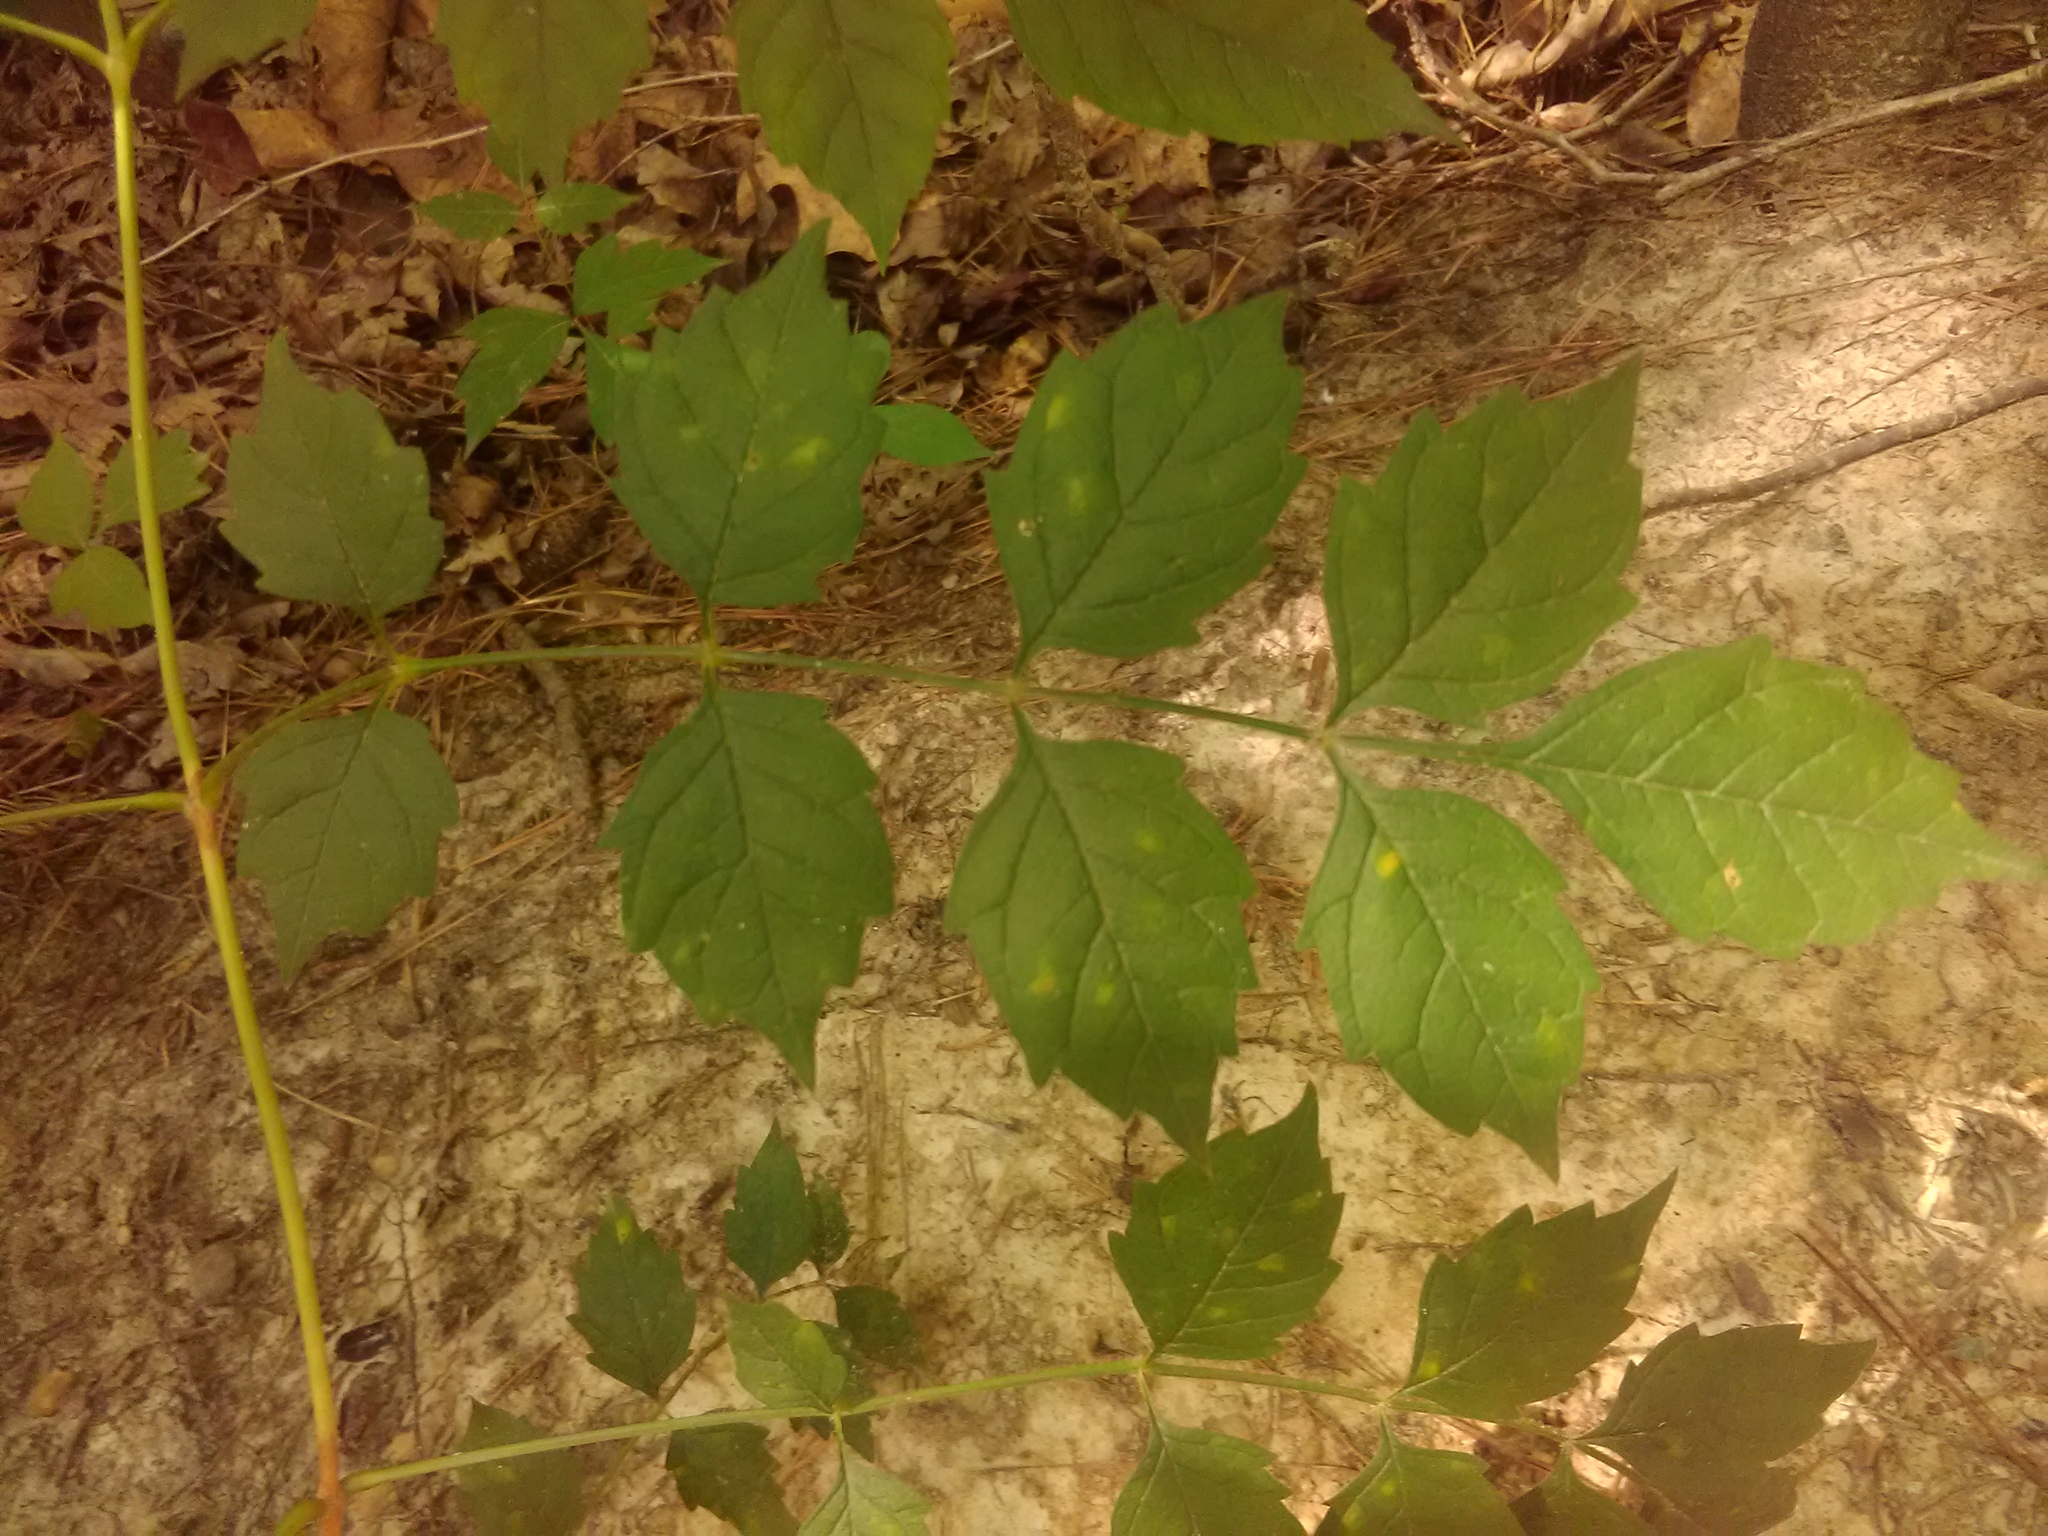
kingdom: Plantae
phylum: Tracheophyta
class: Magnoliopsida
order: Lamiales
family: Bignoniaceae
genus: Campsis
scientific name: Campsis radicans
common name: Trumpet-creeper
